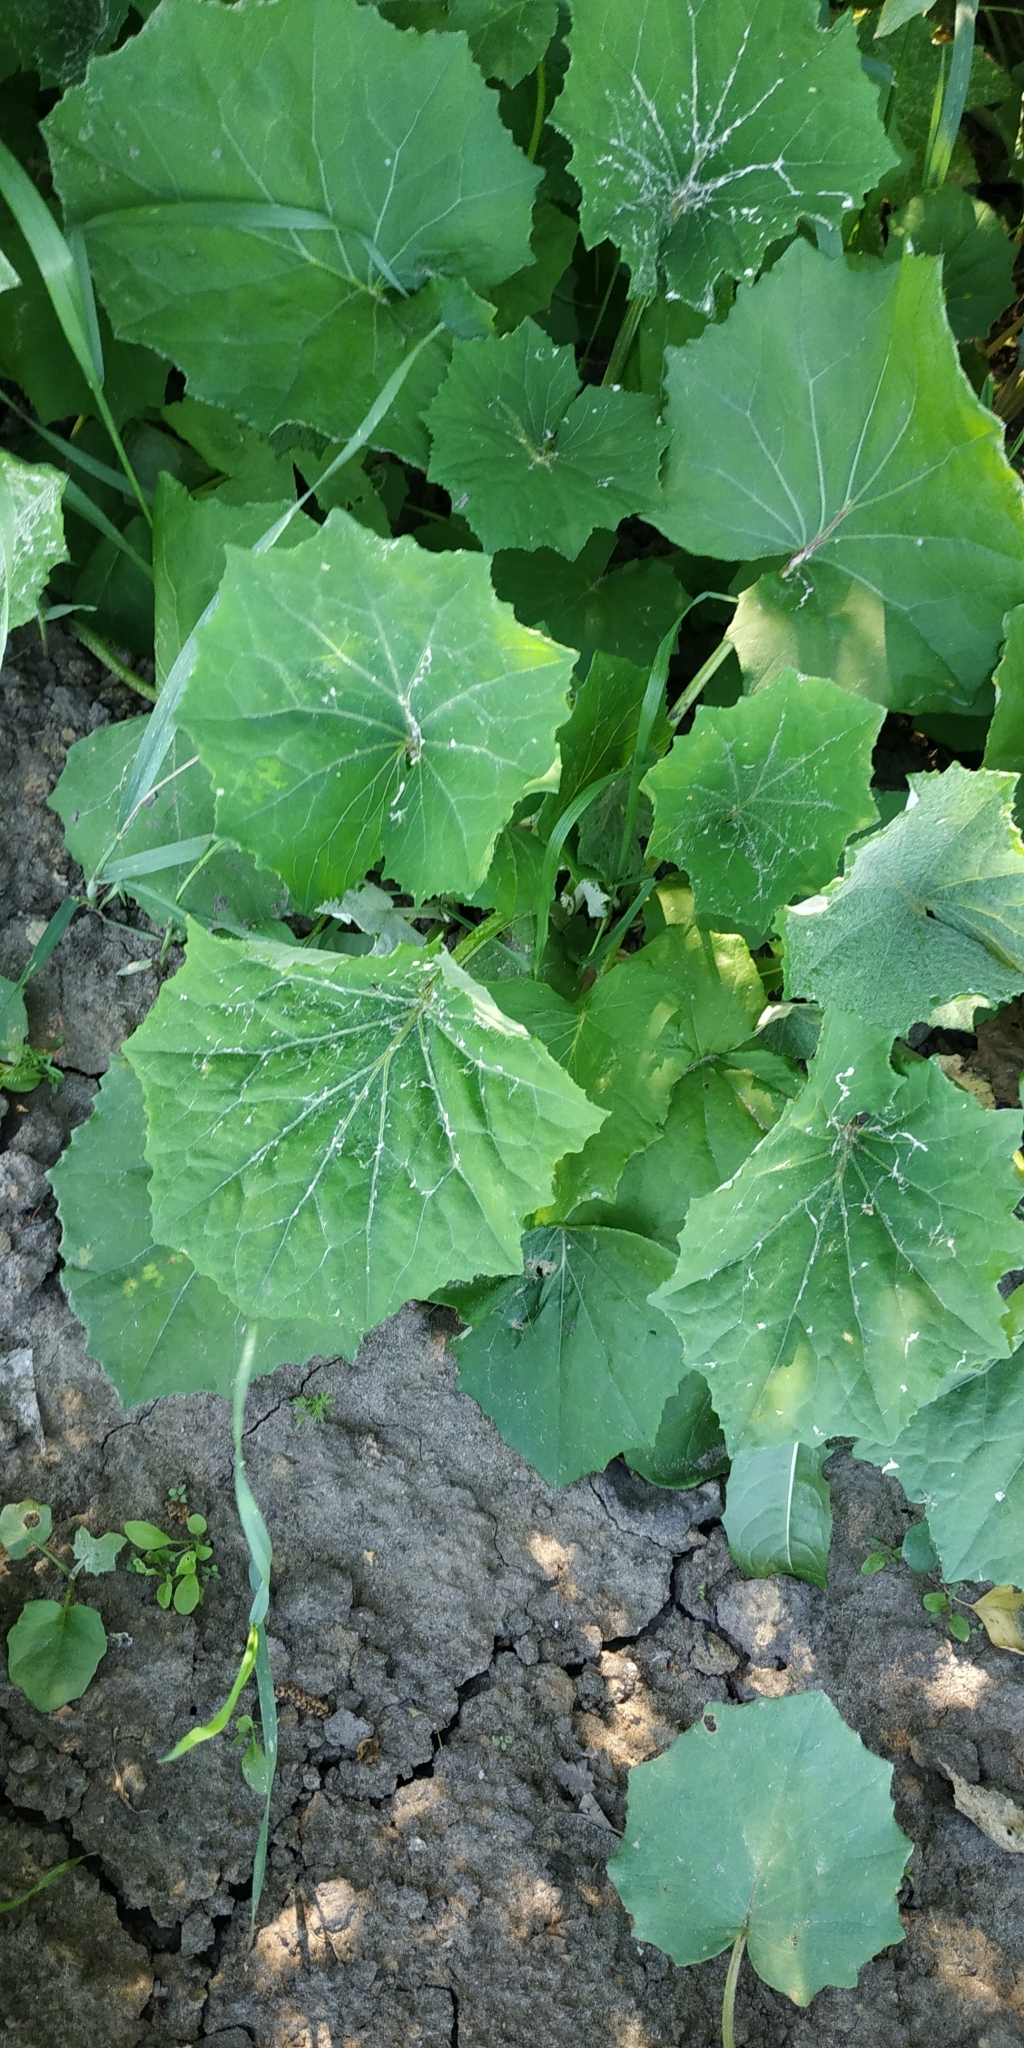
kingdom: Plantae
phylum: Tracheophyta
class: Magnoliopsida
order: Asterales
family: Asteraceae
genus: Tussilago
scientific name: Tussilago farfara
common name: Coltsfoot
